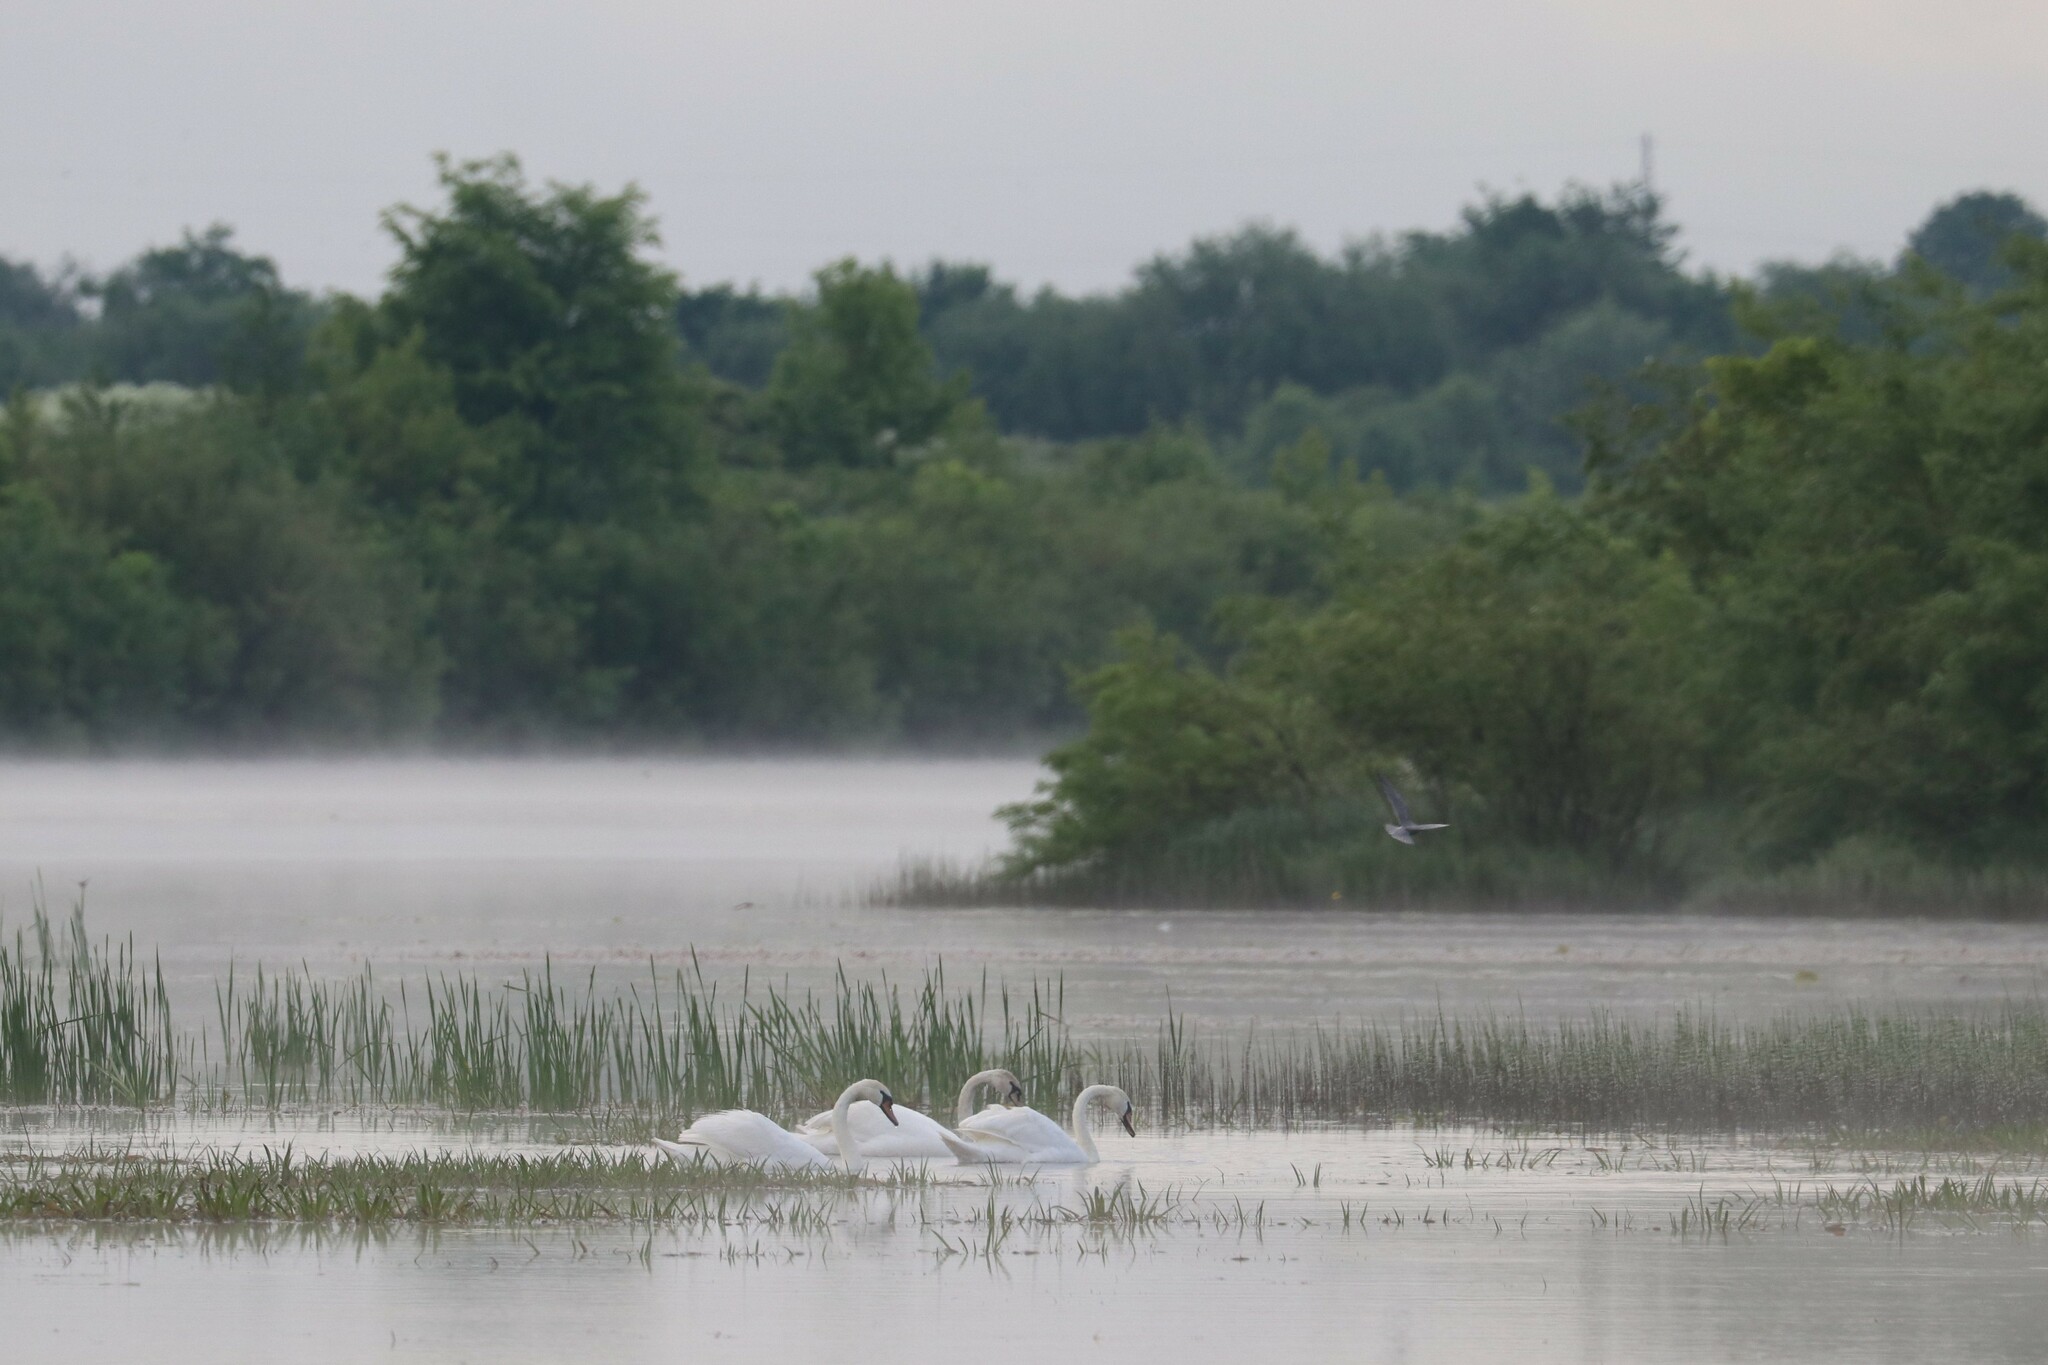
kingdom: Animalia
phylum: Chordata
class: Aves
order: Anseriformes
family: Anatidae
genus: Cygnus
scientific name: Cygnus olor
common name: Mute swan
